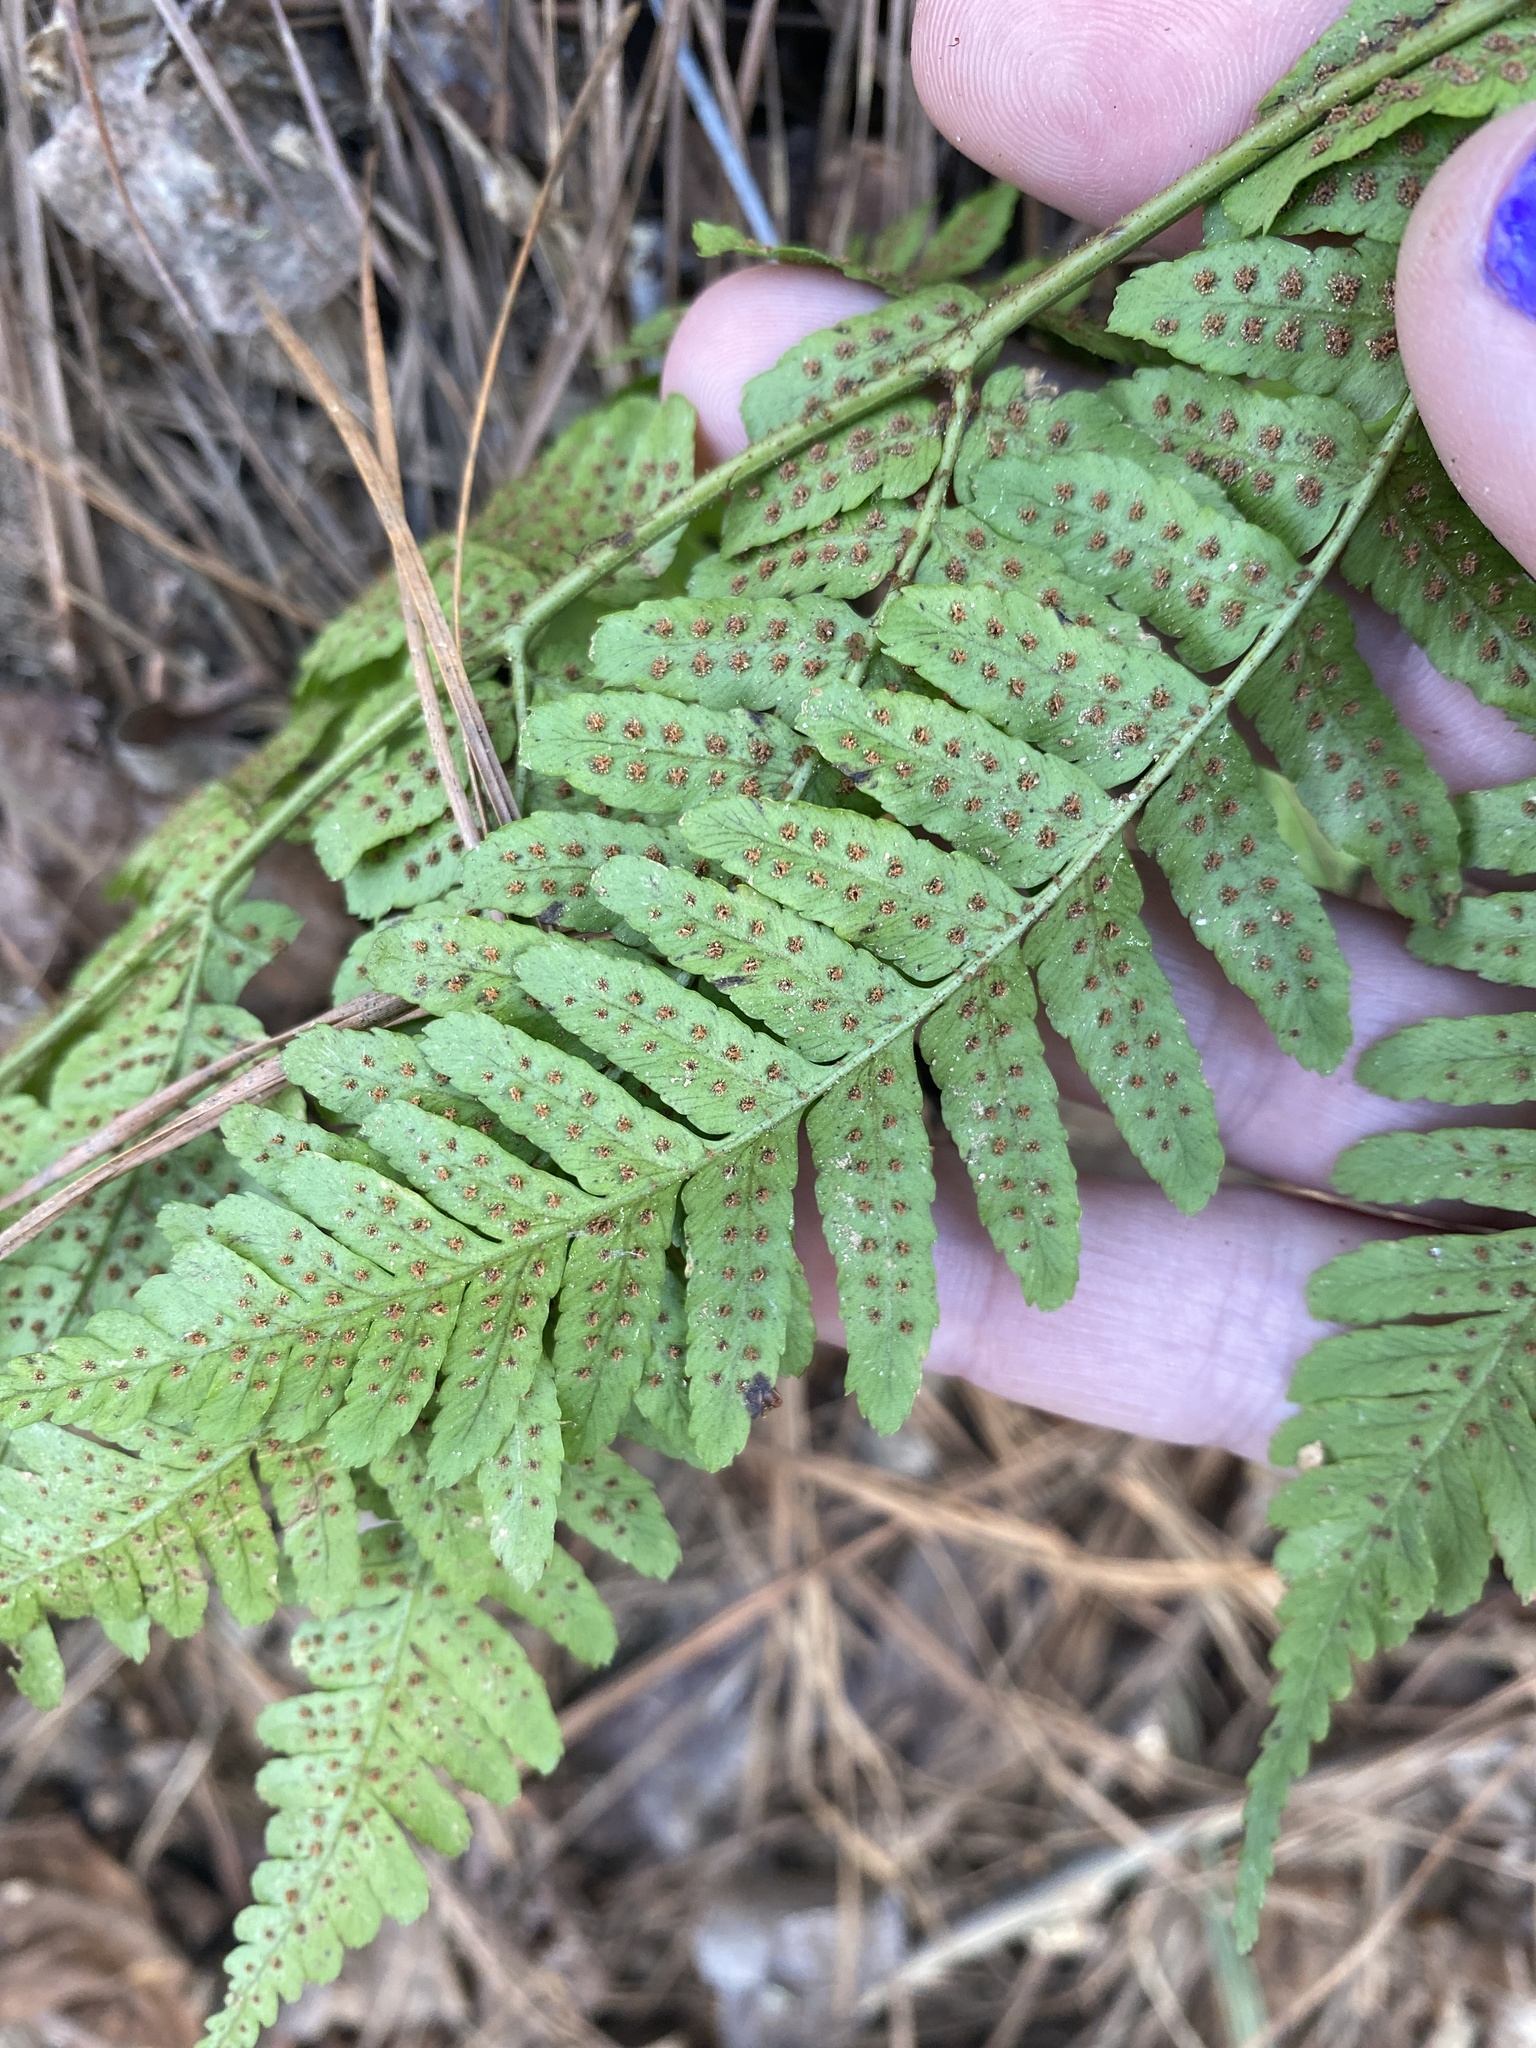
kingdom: Plantae
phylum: Tracheophyta
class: Polypodiopsida
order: Polypodiales
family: Dryopteridaceae
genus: Dryopteris
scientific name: Dryopteris erythrosora
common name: Autumn fern
